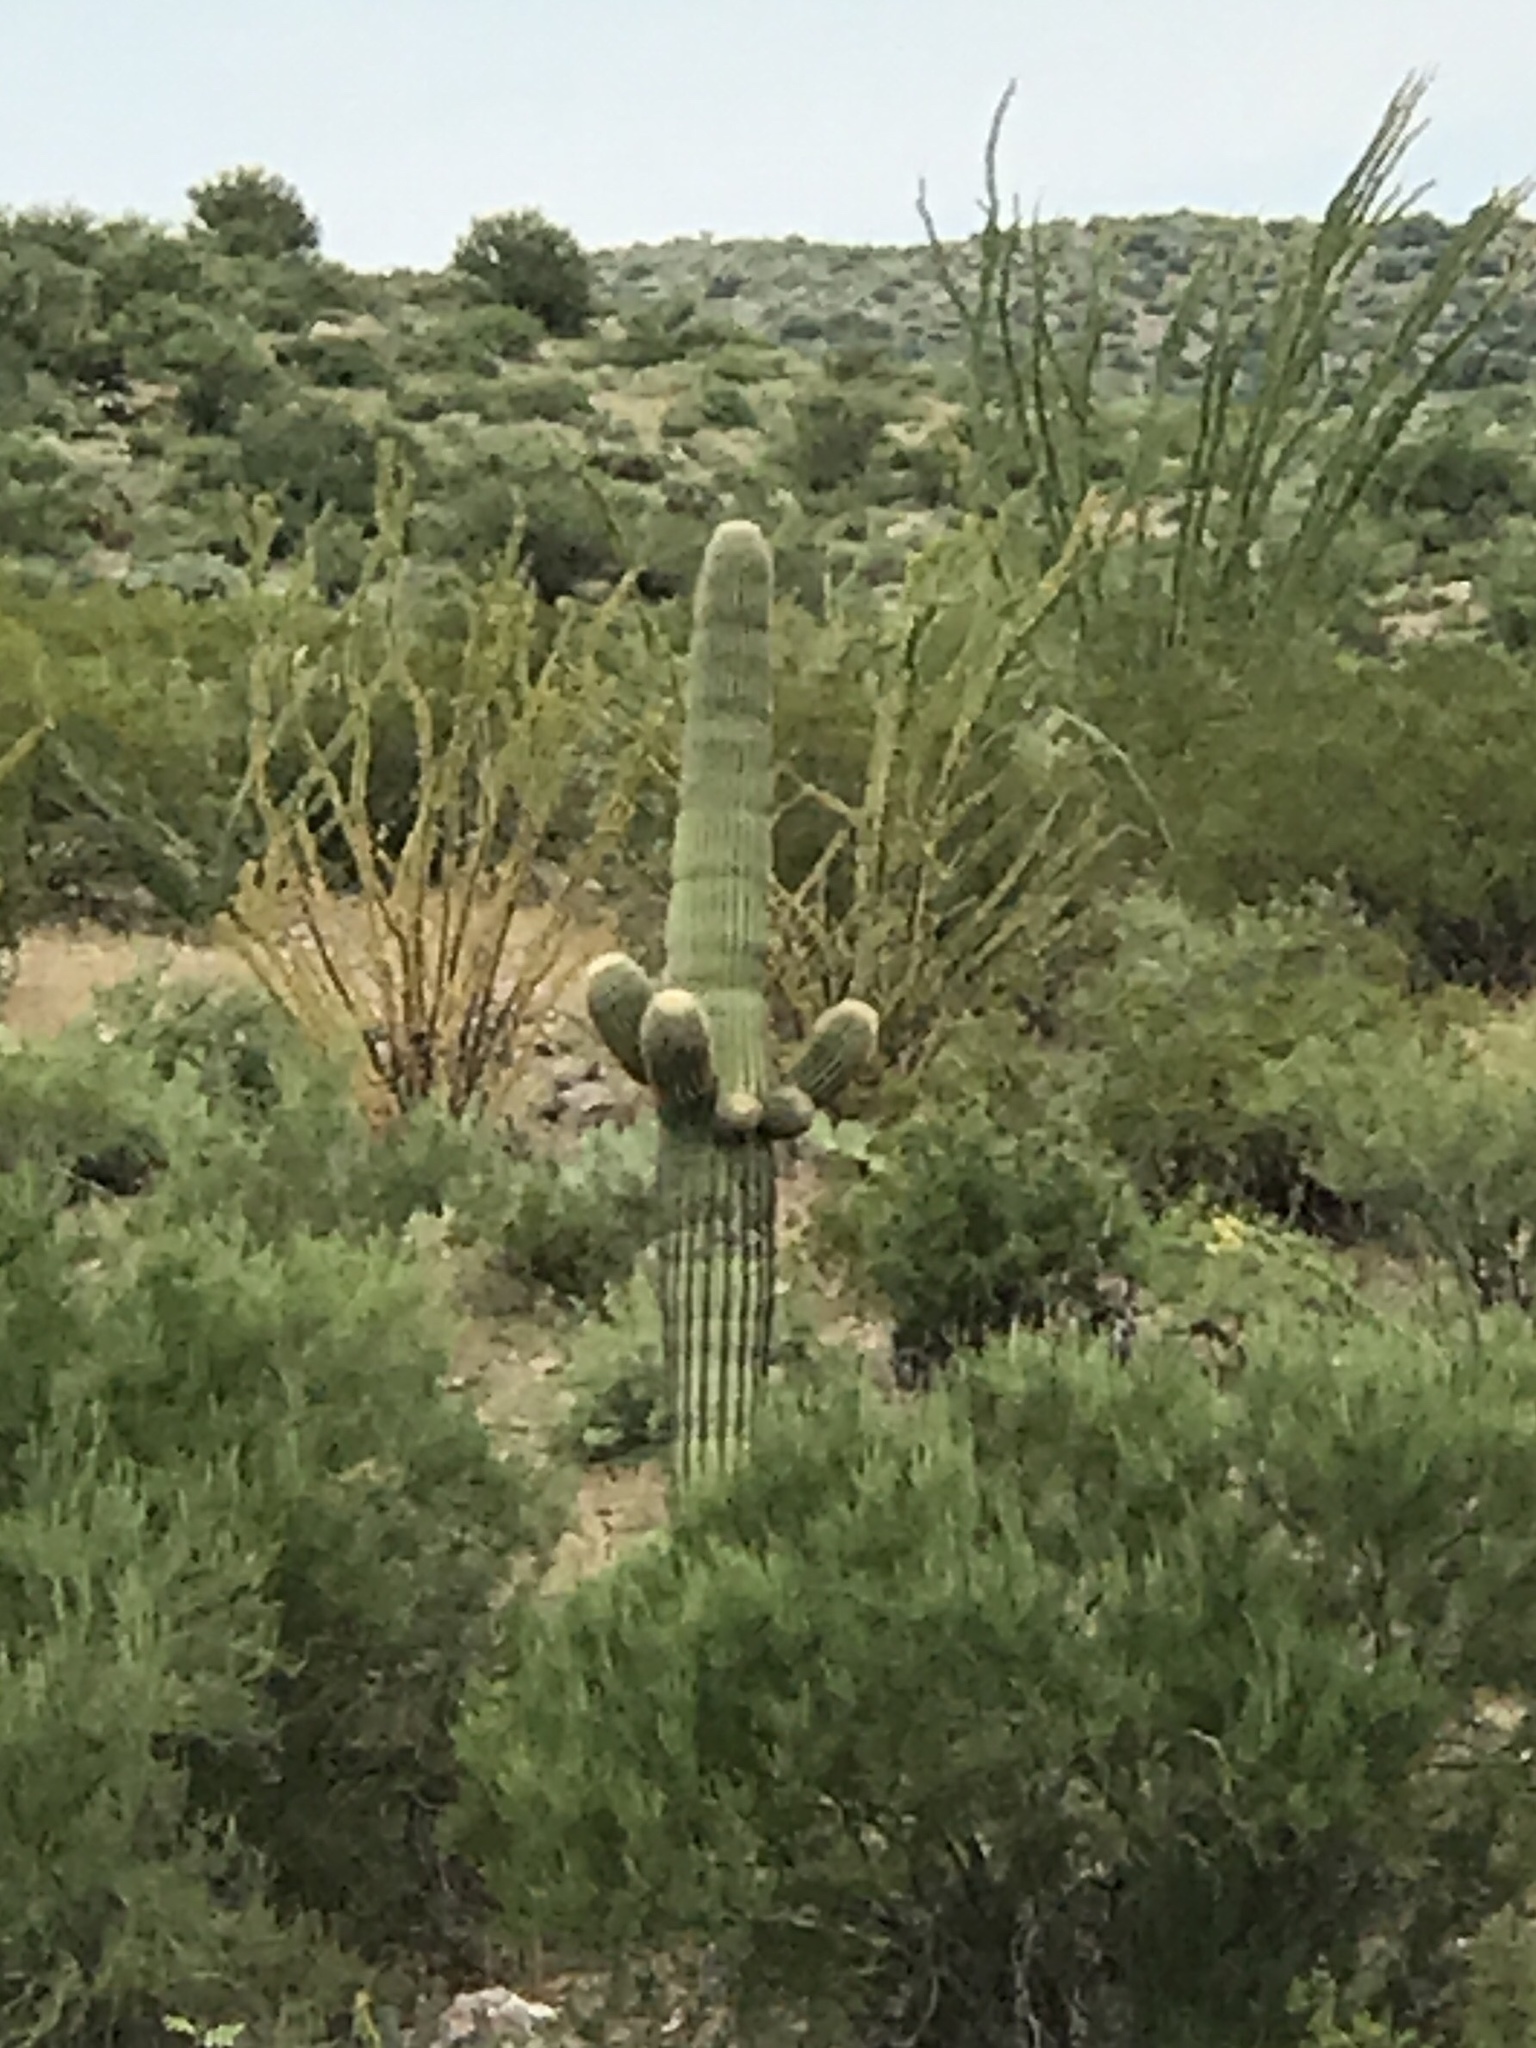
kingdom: Plantae
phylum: Tracheophyta
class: Magnoliopsida
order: Caryophyllales
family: Cactaceae
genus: Carnegiea
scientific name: Carnegiea gigantea
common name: Saguaro
